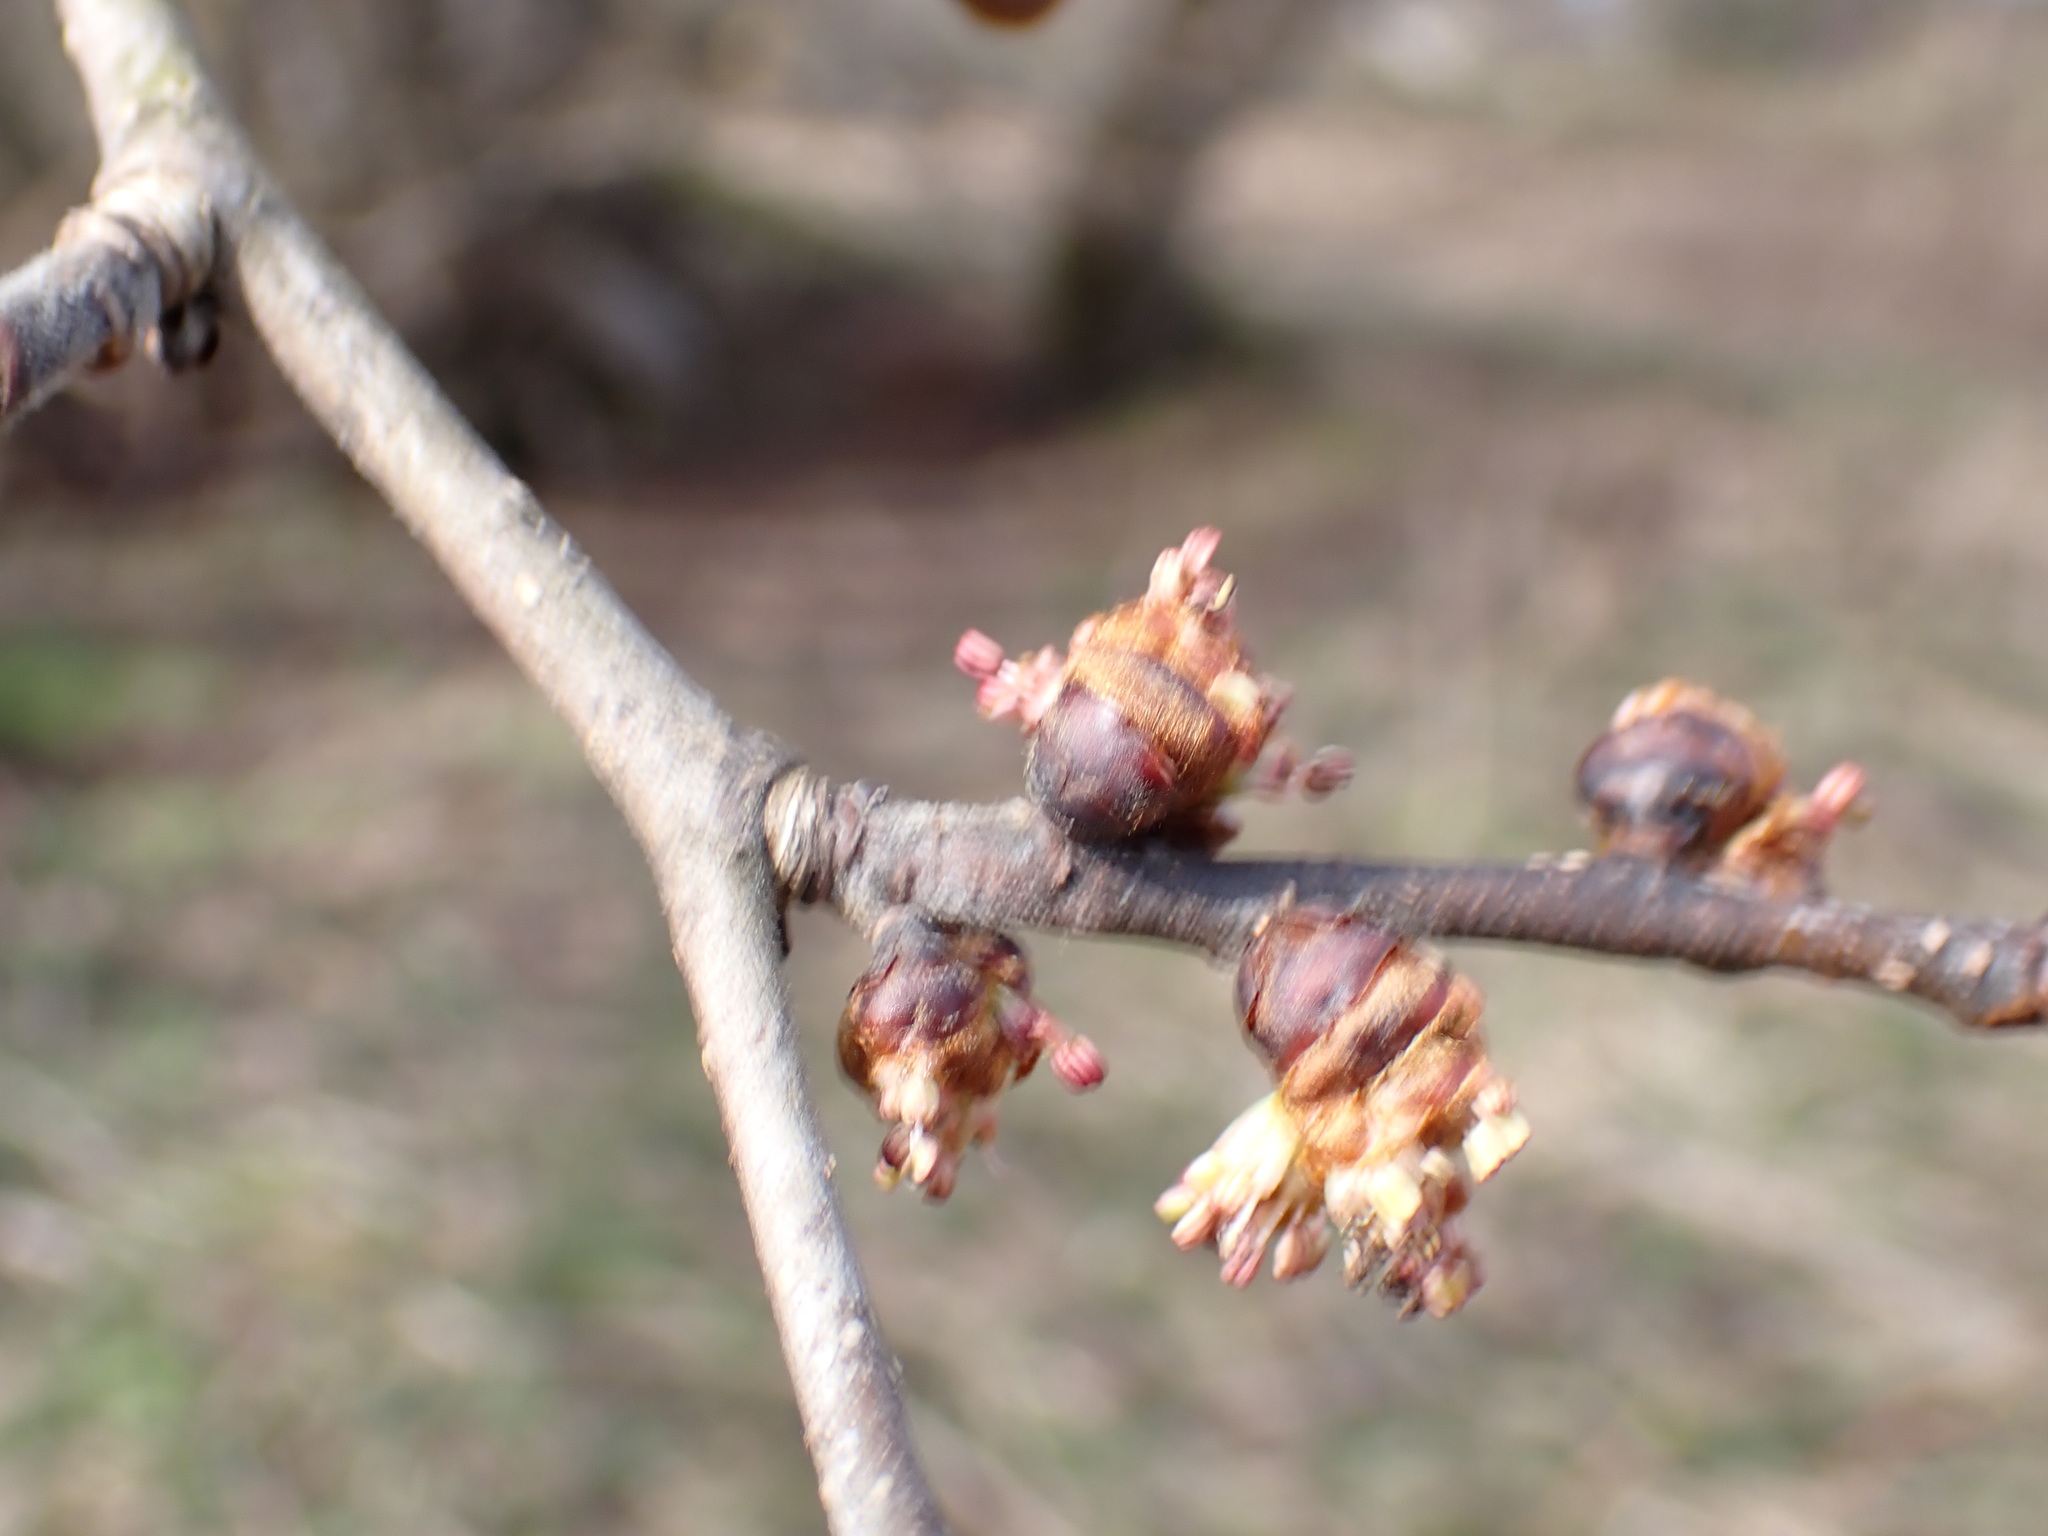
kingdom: Plantae
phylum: Tracheophyta
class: Magnoliopsida
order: Rosales
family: Ulmaceae
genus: Ulmus
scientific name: Ulmus glabra
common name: Wych elm
